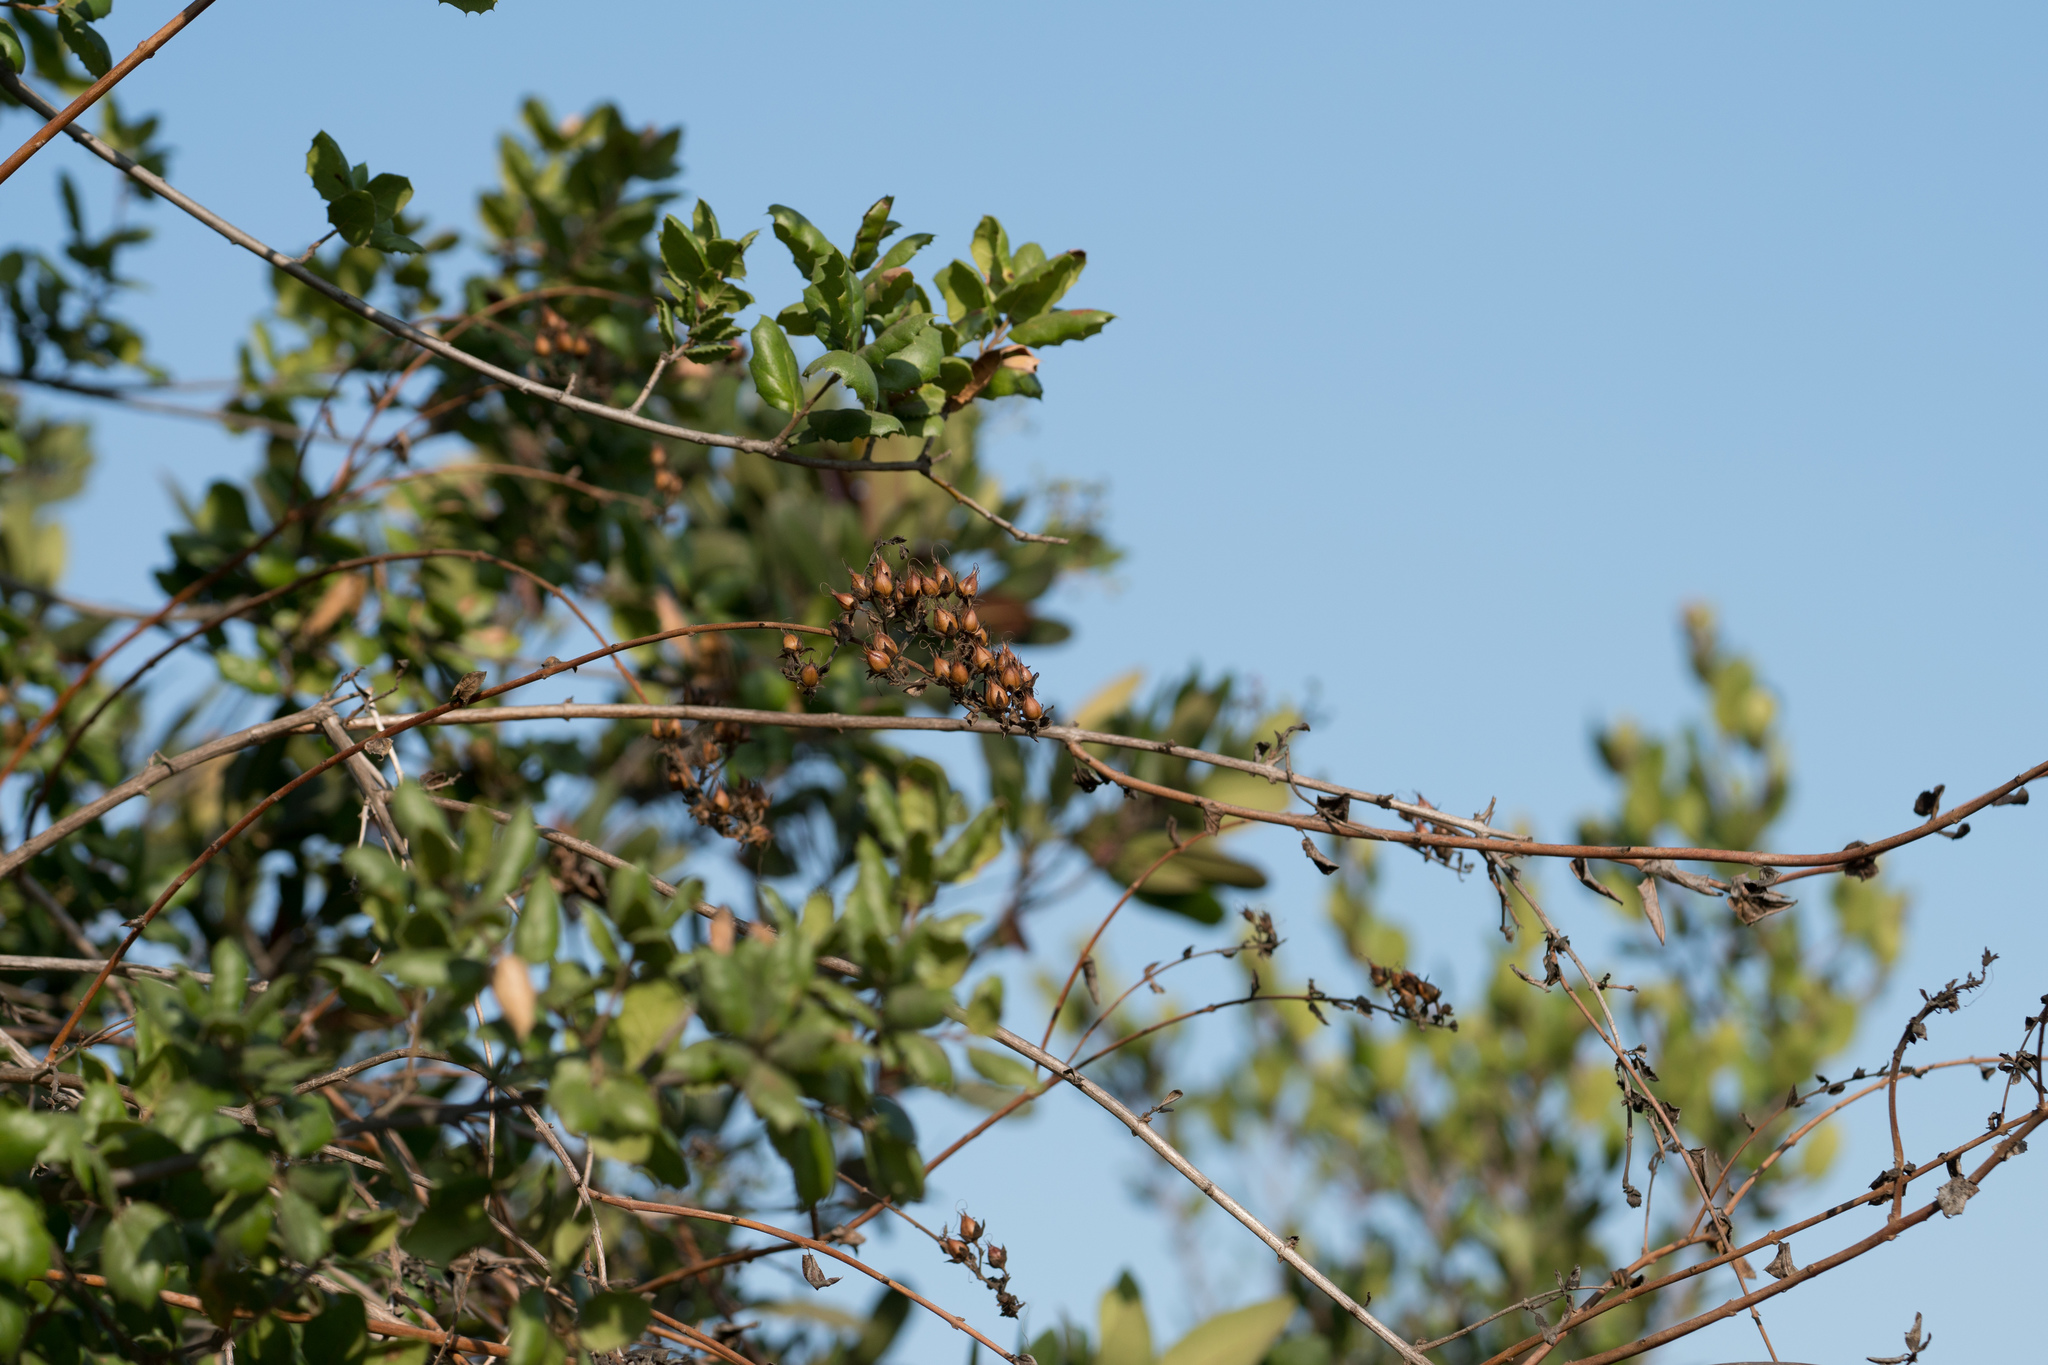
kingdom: Plantae
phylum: Tracheophyta
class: Magnoliopsida
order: Lamiales
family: Plantaginaceae
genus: Keckiella
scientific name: Keckiella cordifolia
